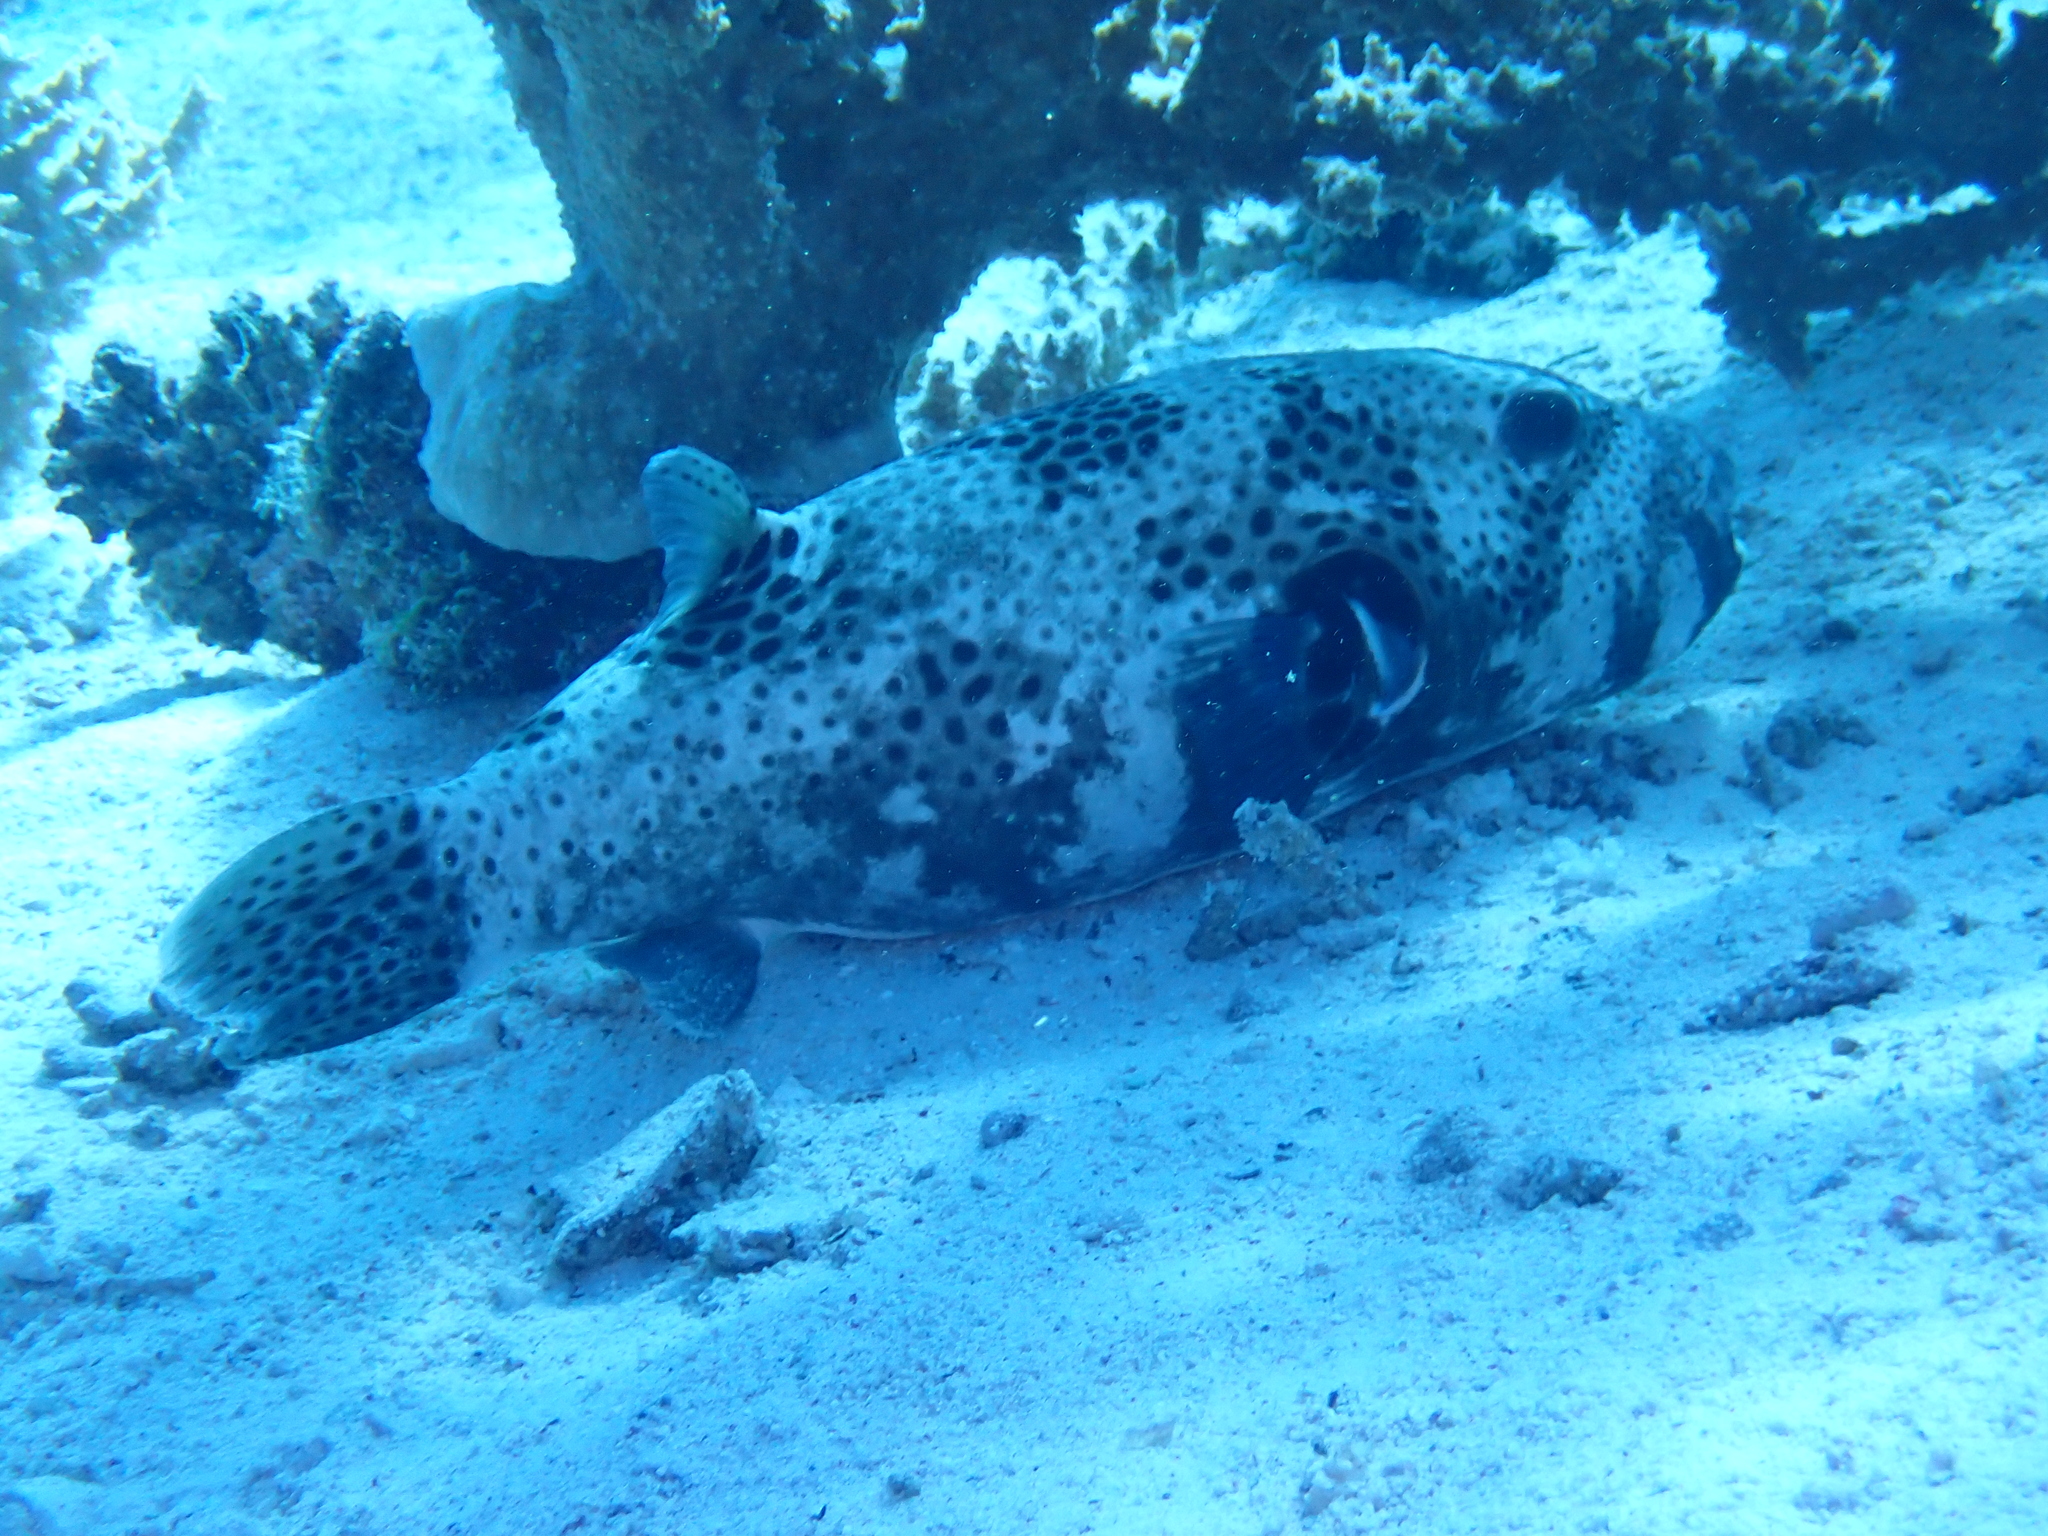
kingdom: Animalia
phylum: Chordata
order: Tetraodontiformes
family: Tetraodontidae
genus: Arothron
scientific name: Arothron stellatus
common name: Star blaasop
